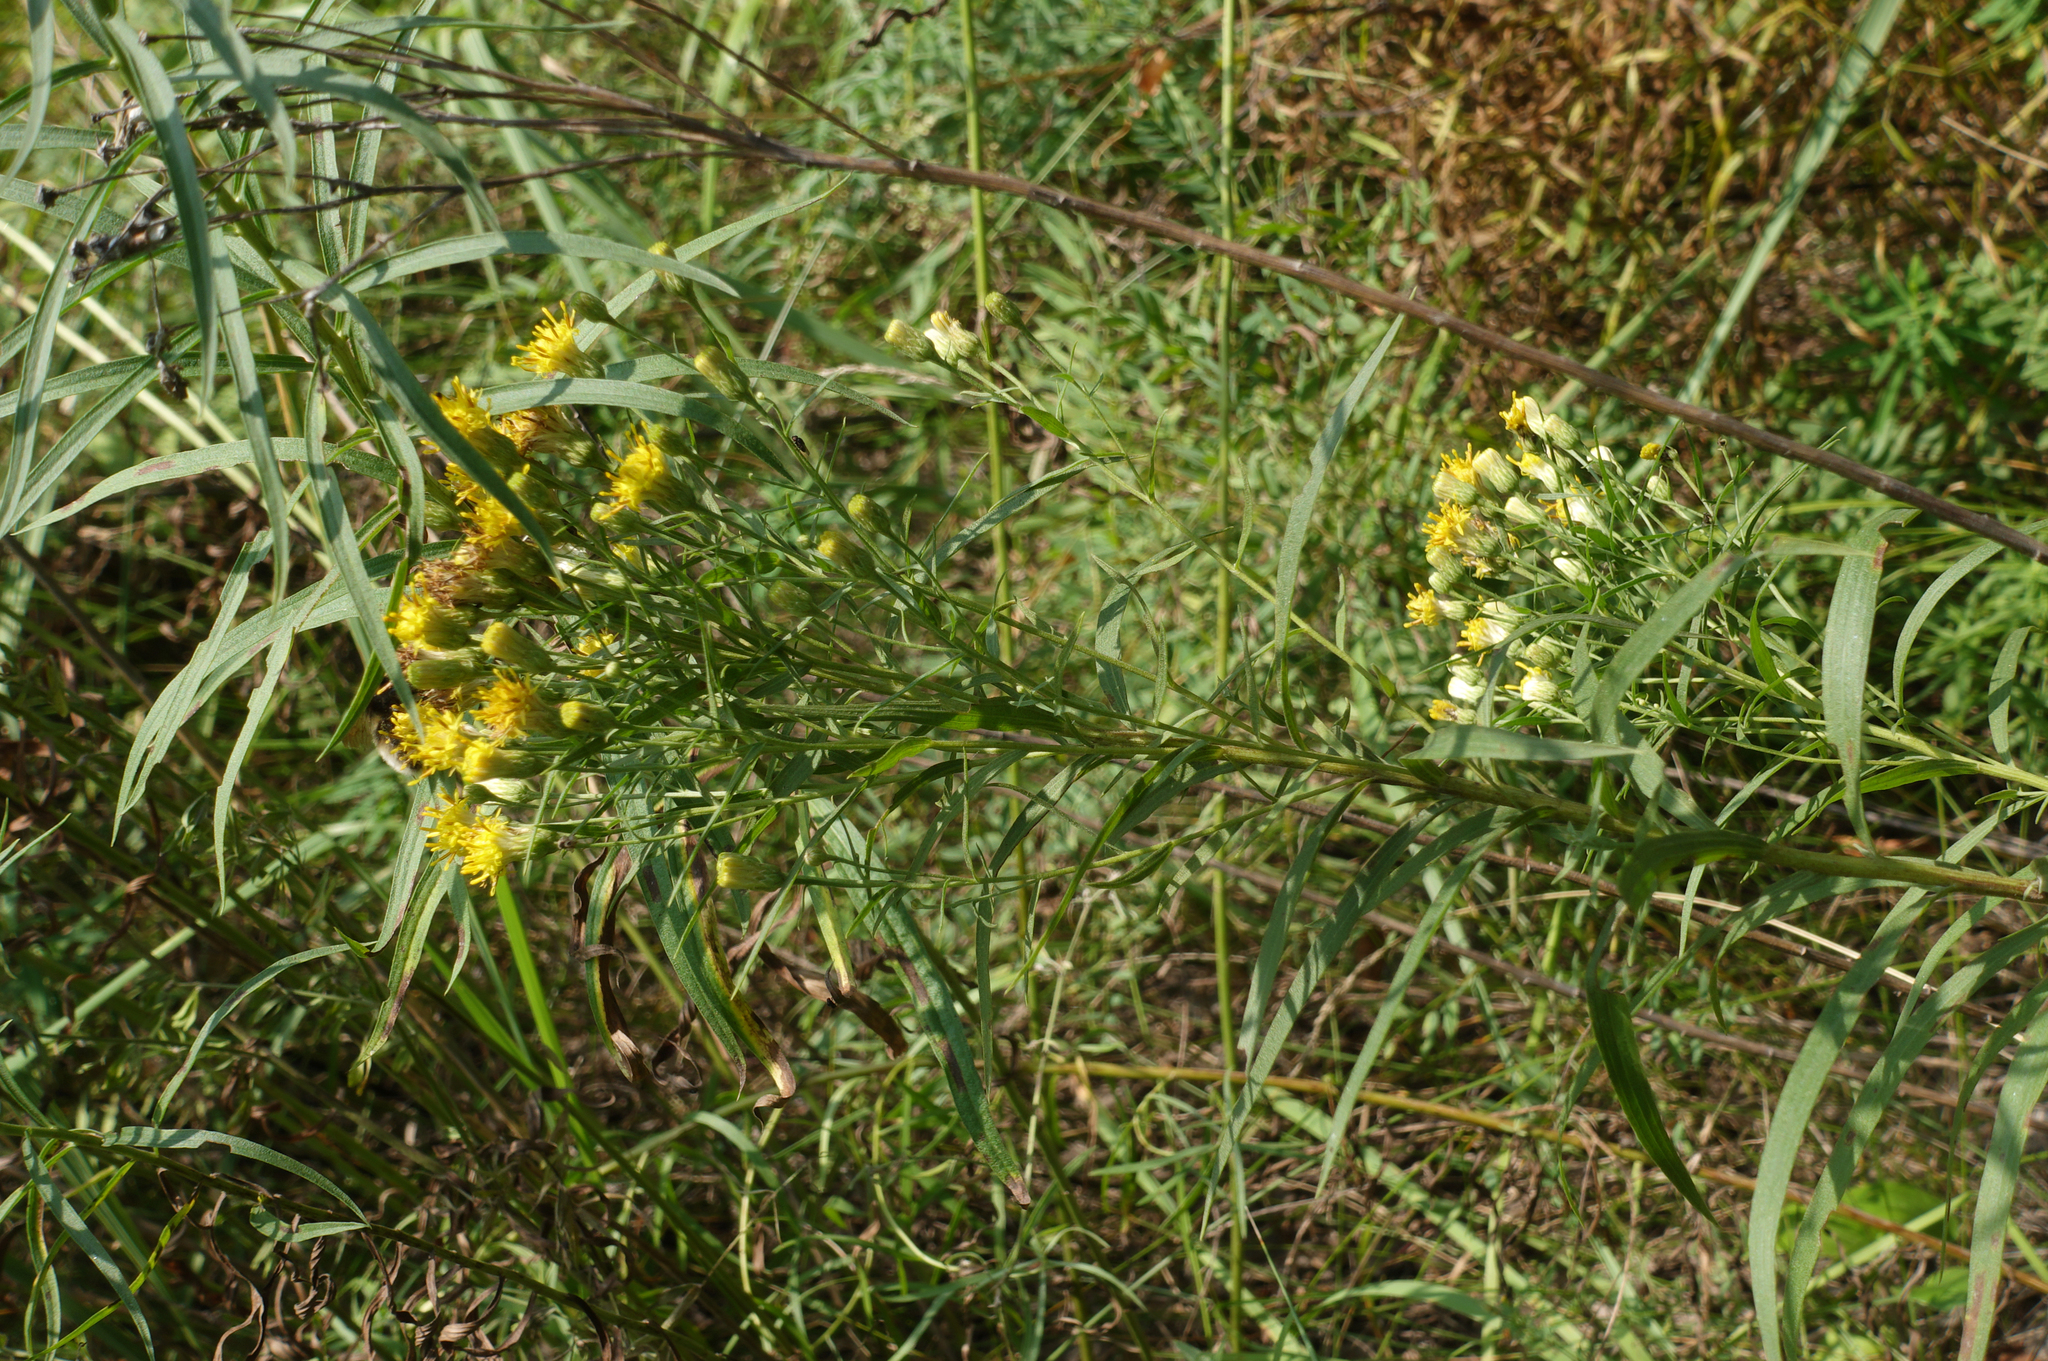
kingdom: Plantae
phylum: Tracheophyta
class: Magnoliopsida
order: Asterales
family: Asteraceae
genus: Galatella
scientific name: Galatella biflora
